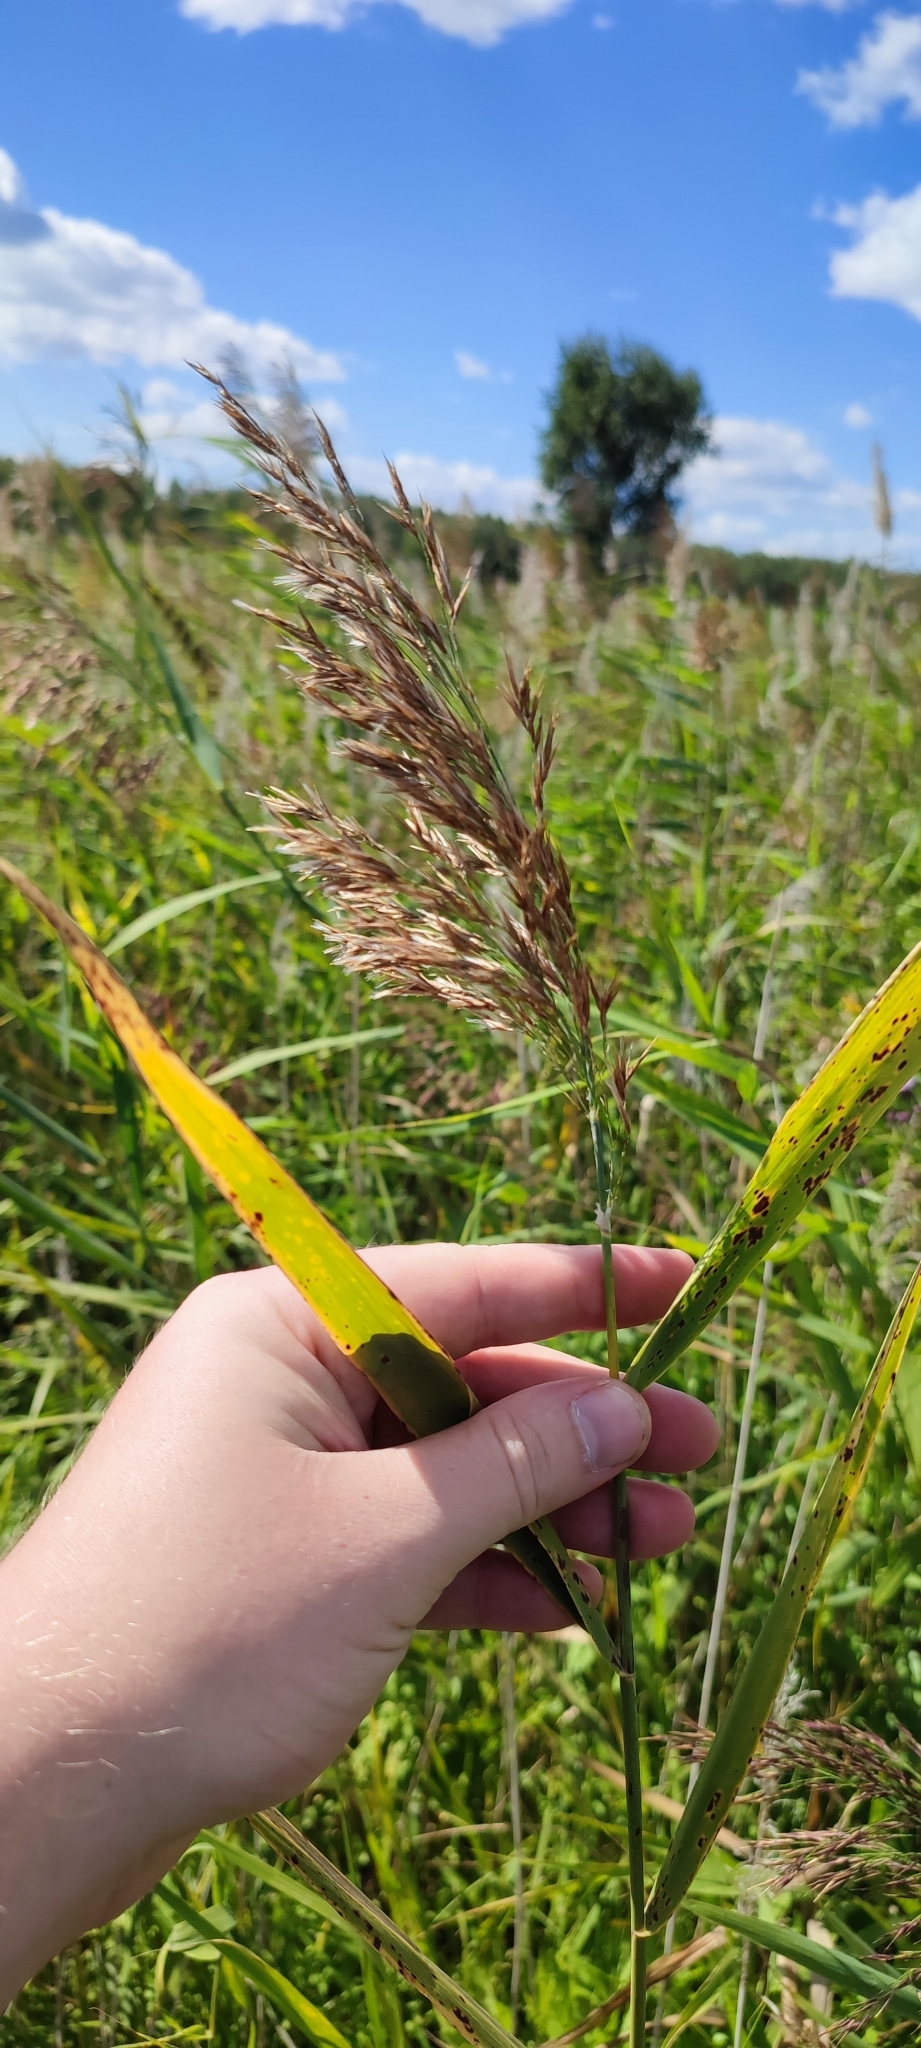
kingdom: Plantae
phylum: Tracheophyta
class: Liliopsida
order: Poales
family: Poaceae
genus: Phragmites
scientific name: Phragmites australis
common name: Common reed
